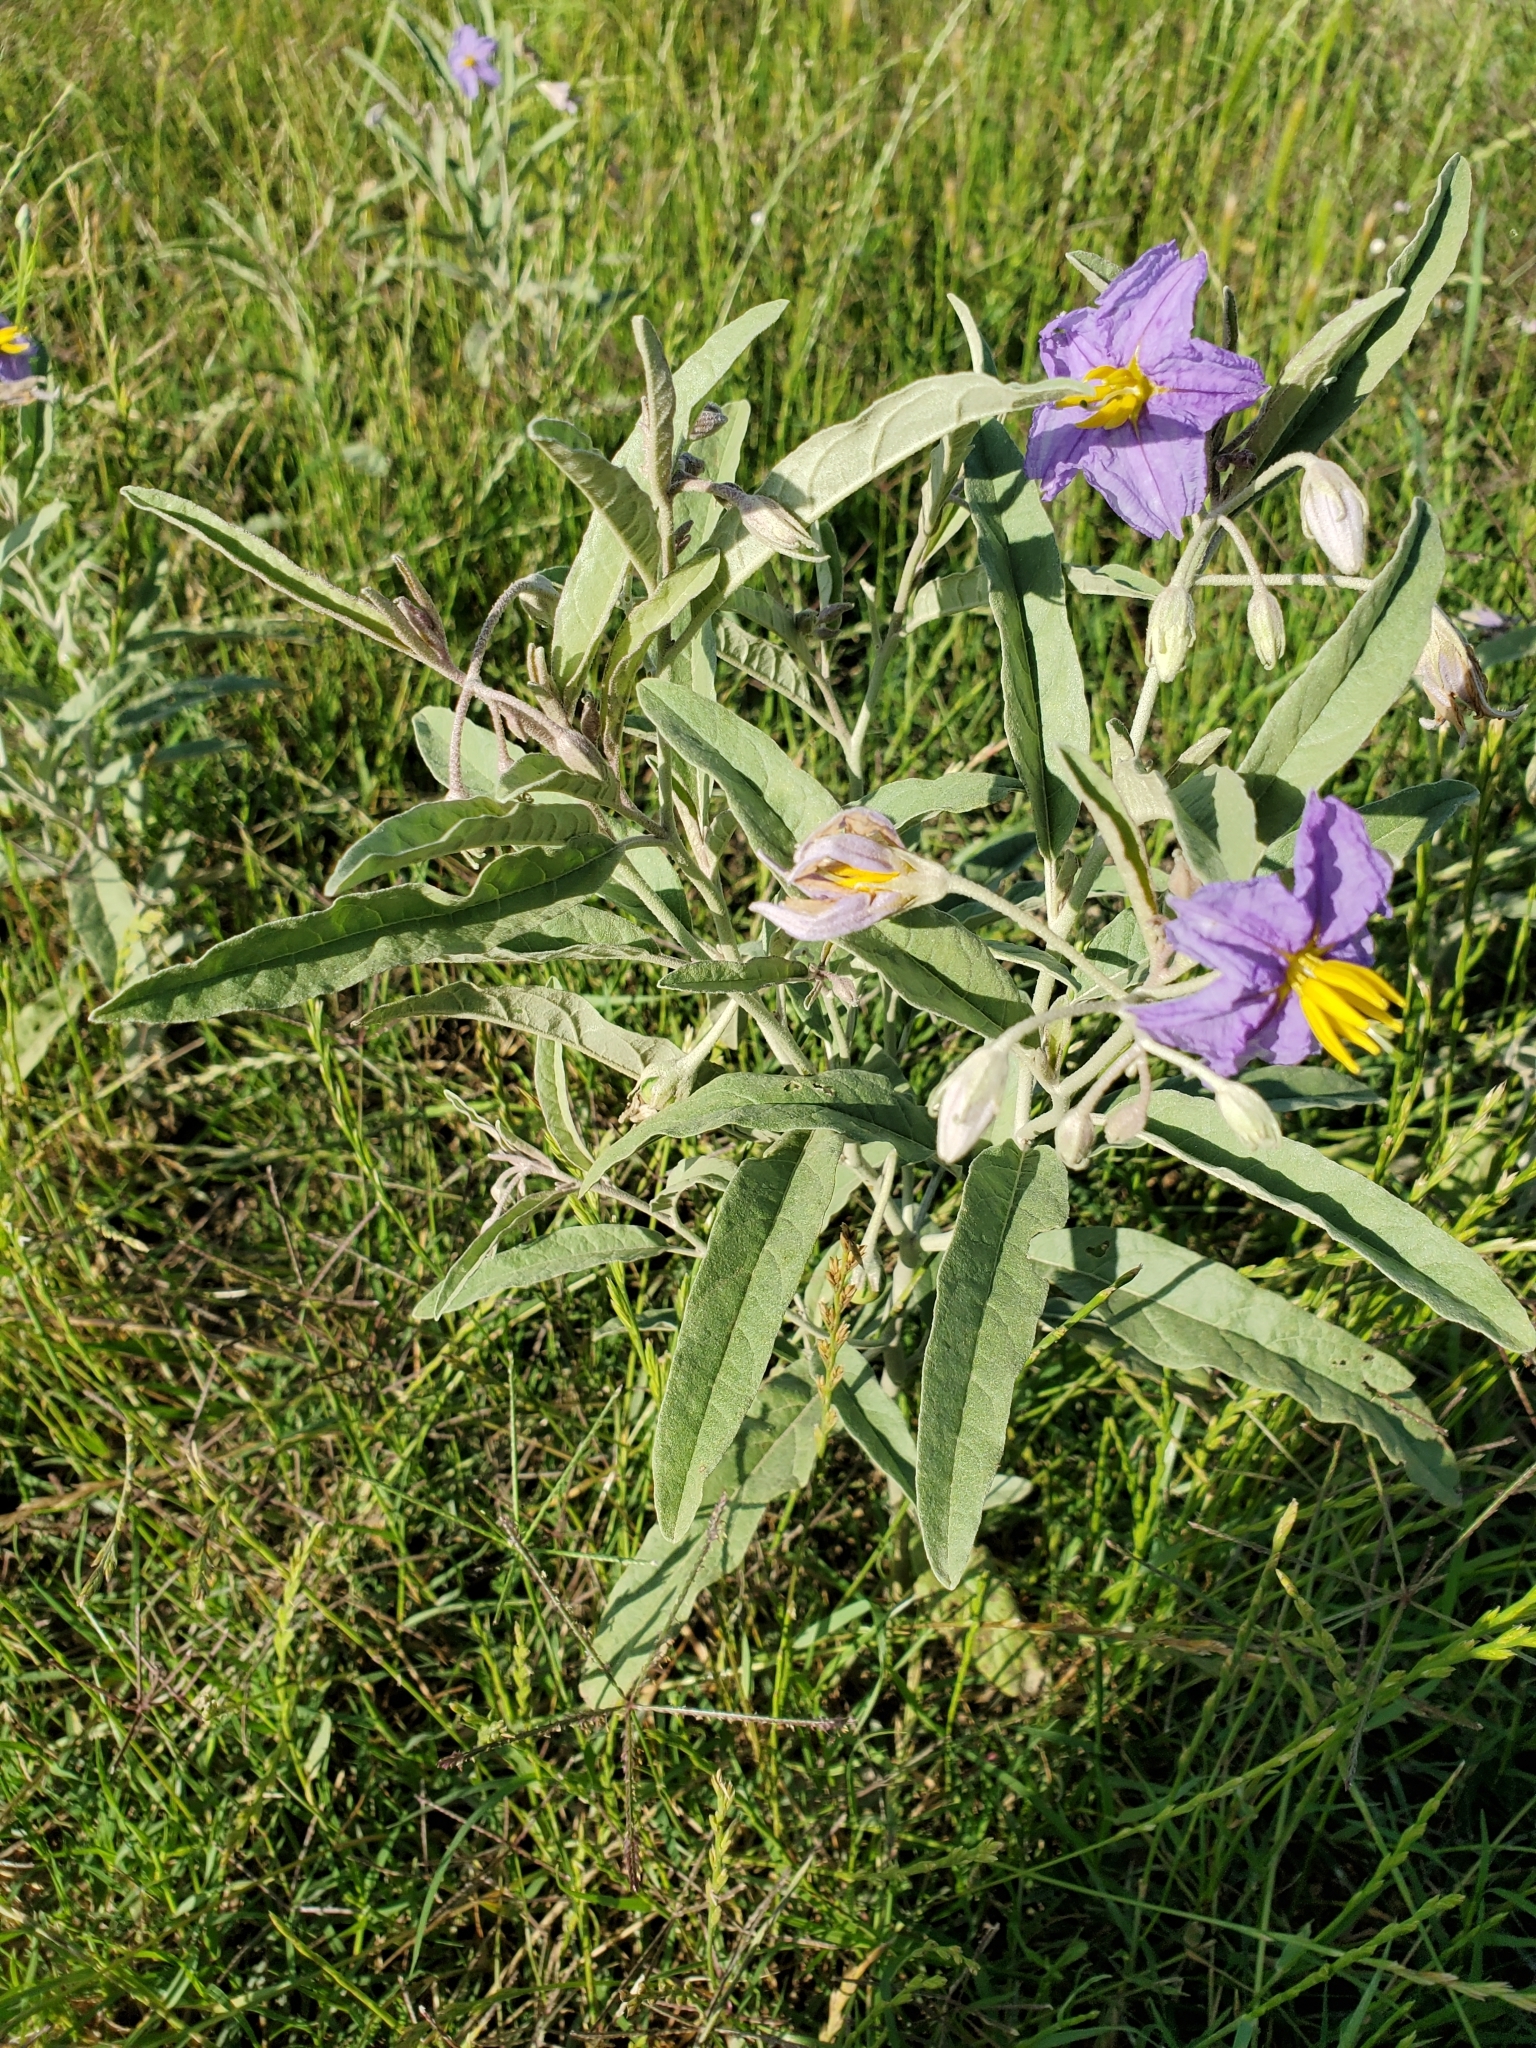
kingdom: Plantae
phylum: Tracheophyta
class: Magnoliopsida
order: Solanales
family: Solanaceae
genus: Solanum
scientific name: Solanum elaeagnifolium
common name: Silverleaf nightshade
